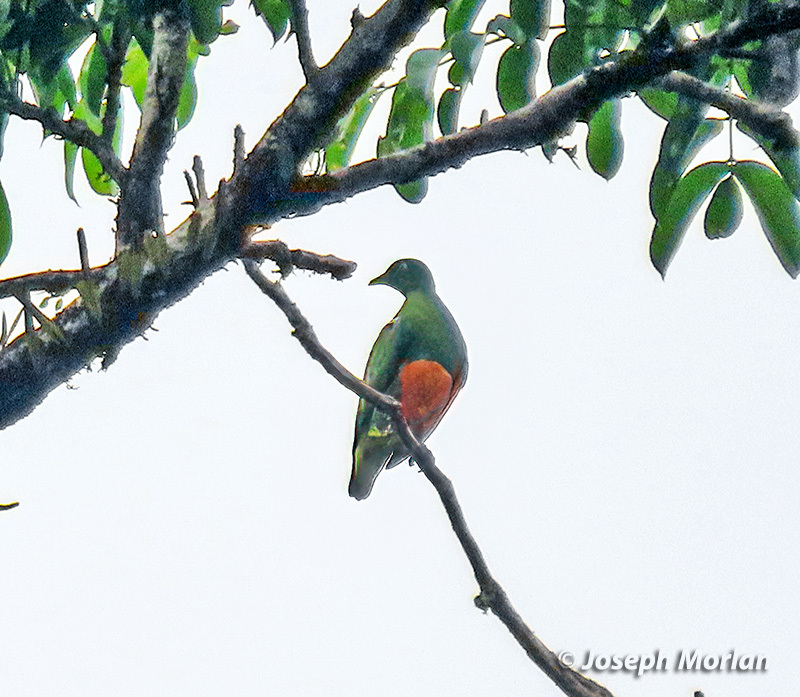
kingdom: Animalia
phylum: Chordata
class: Aves
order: Columbiformes
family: Columbidae
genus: Ptilinopus
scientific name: Ptilinopus iozonus
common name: Orange-bellied fruit dove
